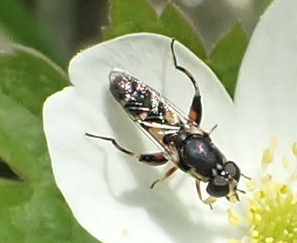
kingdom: Animalia
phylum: Arthropoda
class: Insecta
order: Diptera
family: Syrphidae
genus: Syritta
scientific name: Syritta pipiens
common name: Hover fly
